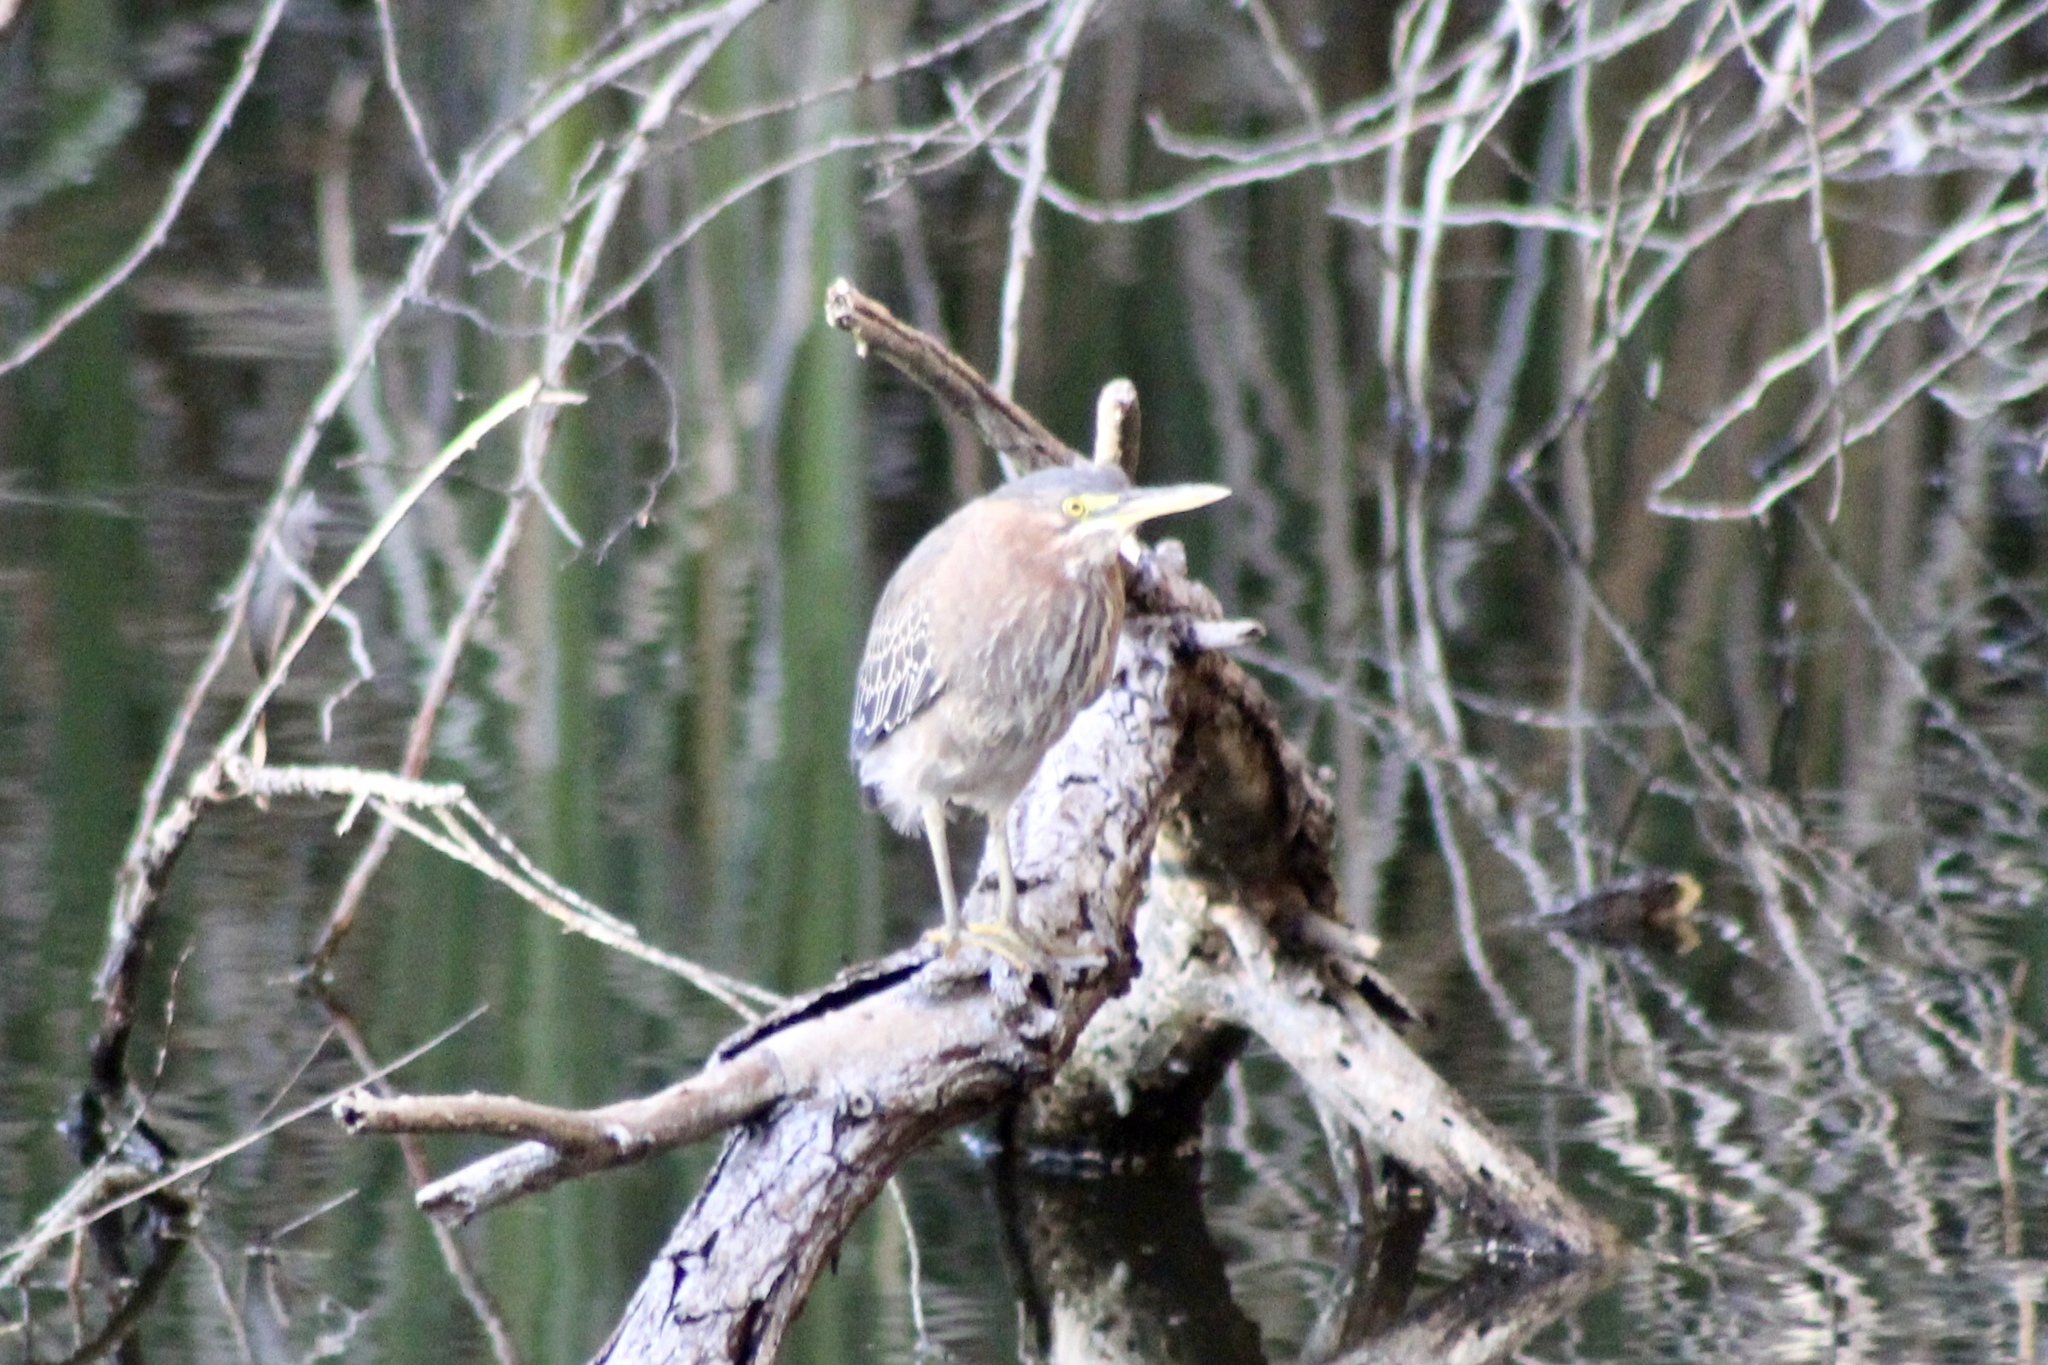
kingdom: Animalia
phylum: Chordata
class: Aves
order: Pelecaniformes
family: Ardeidae
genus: Butorides
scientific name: Butorides virescens
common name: Green heron
